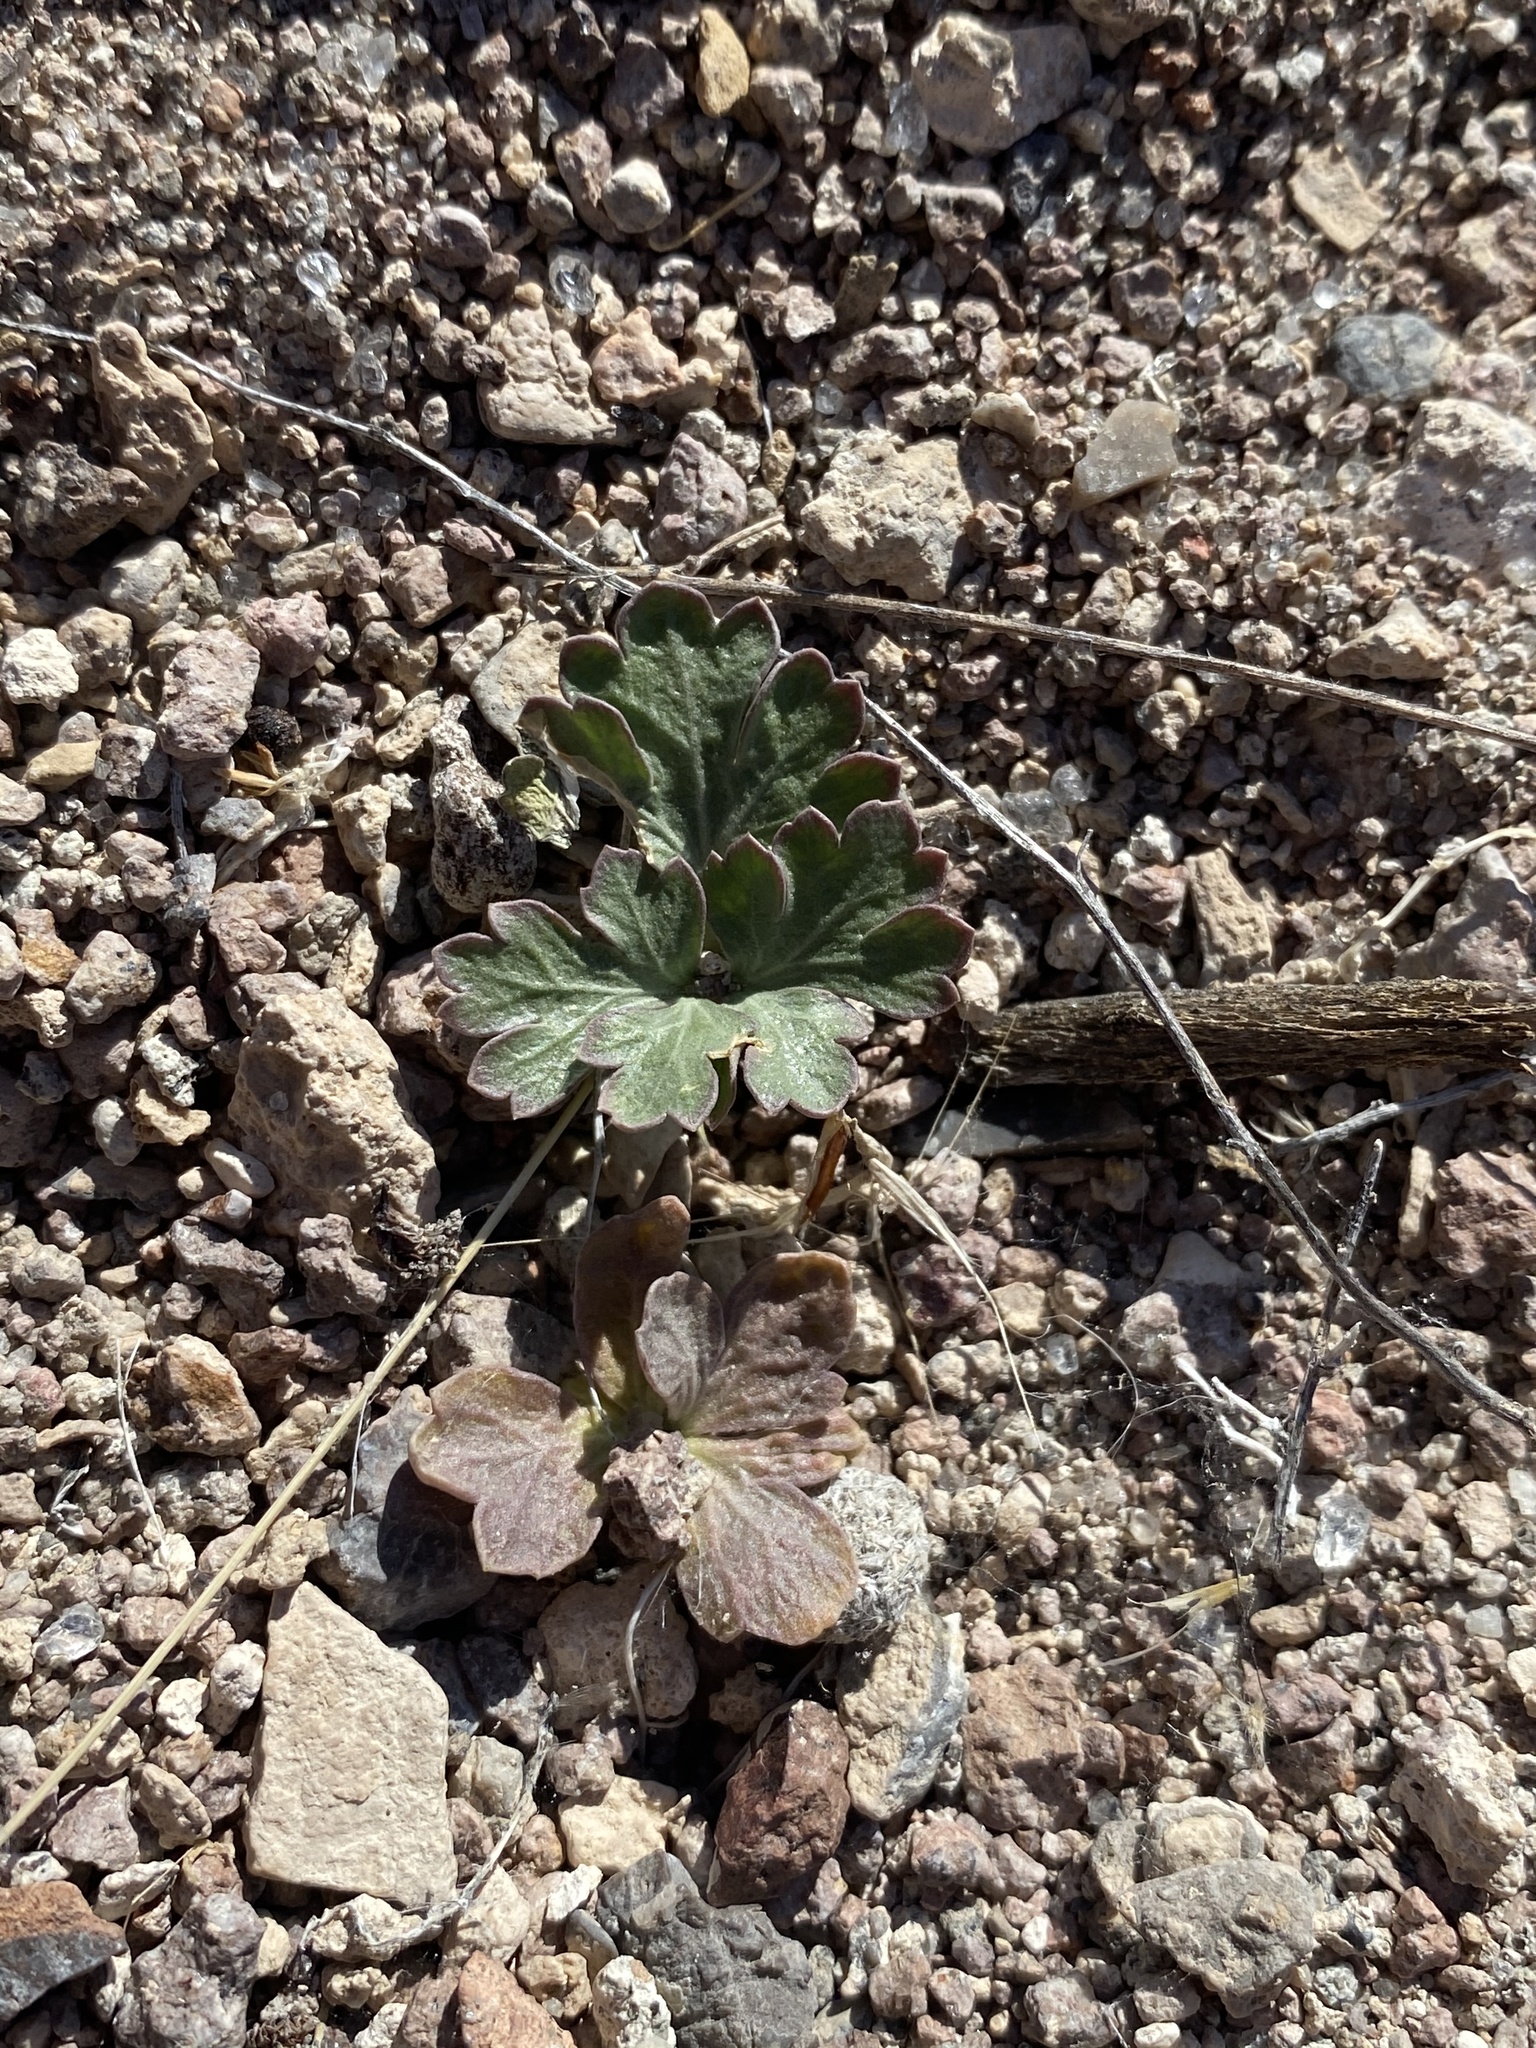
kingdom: Plantae
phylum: Tracheophyta
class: Magnoliopsida
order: Apiales
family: Apiaceae
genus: Cymopterus
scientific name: Cymopterus ripleyi
